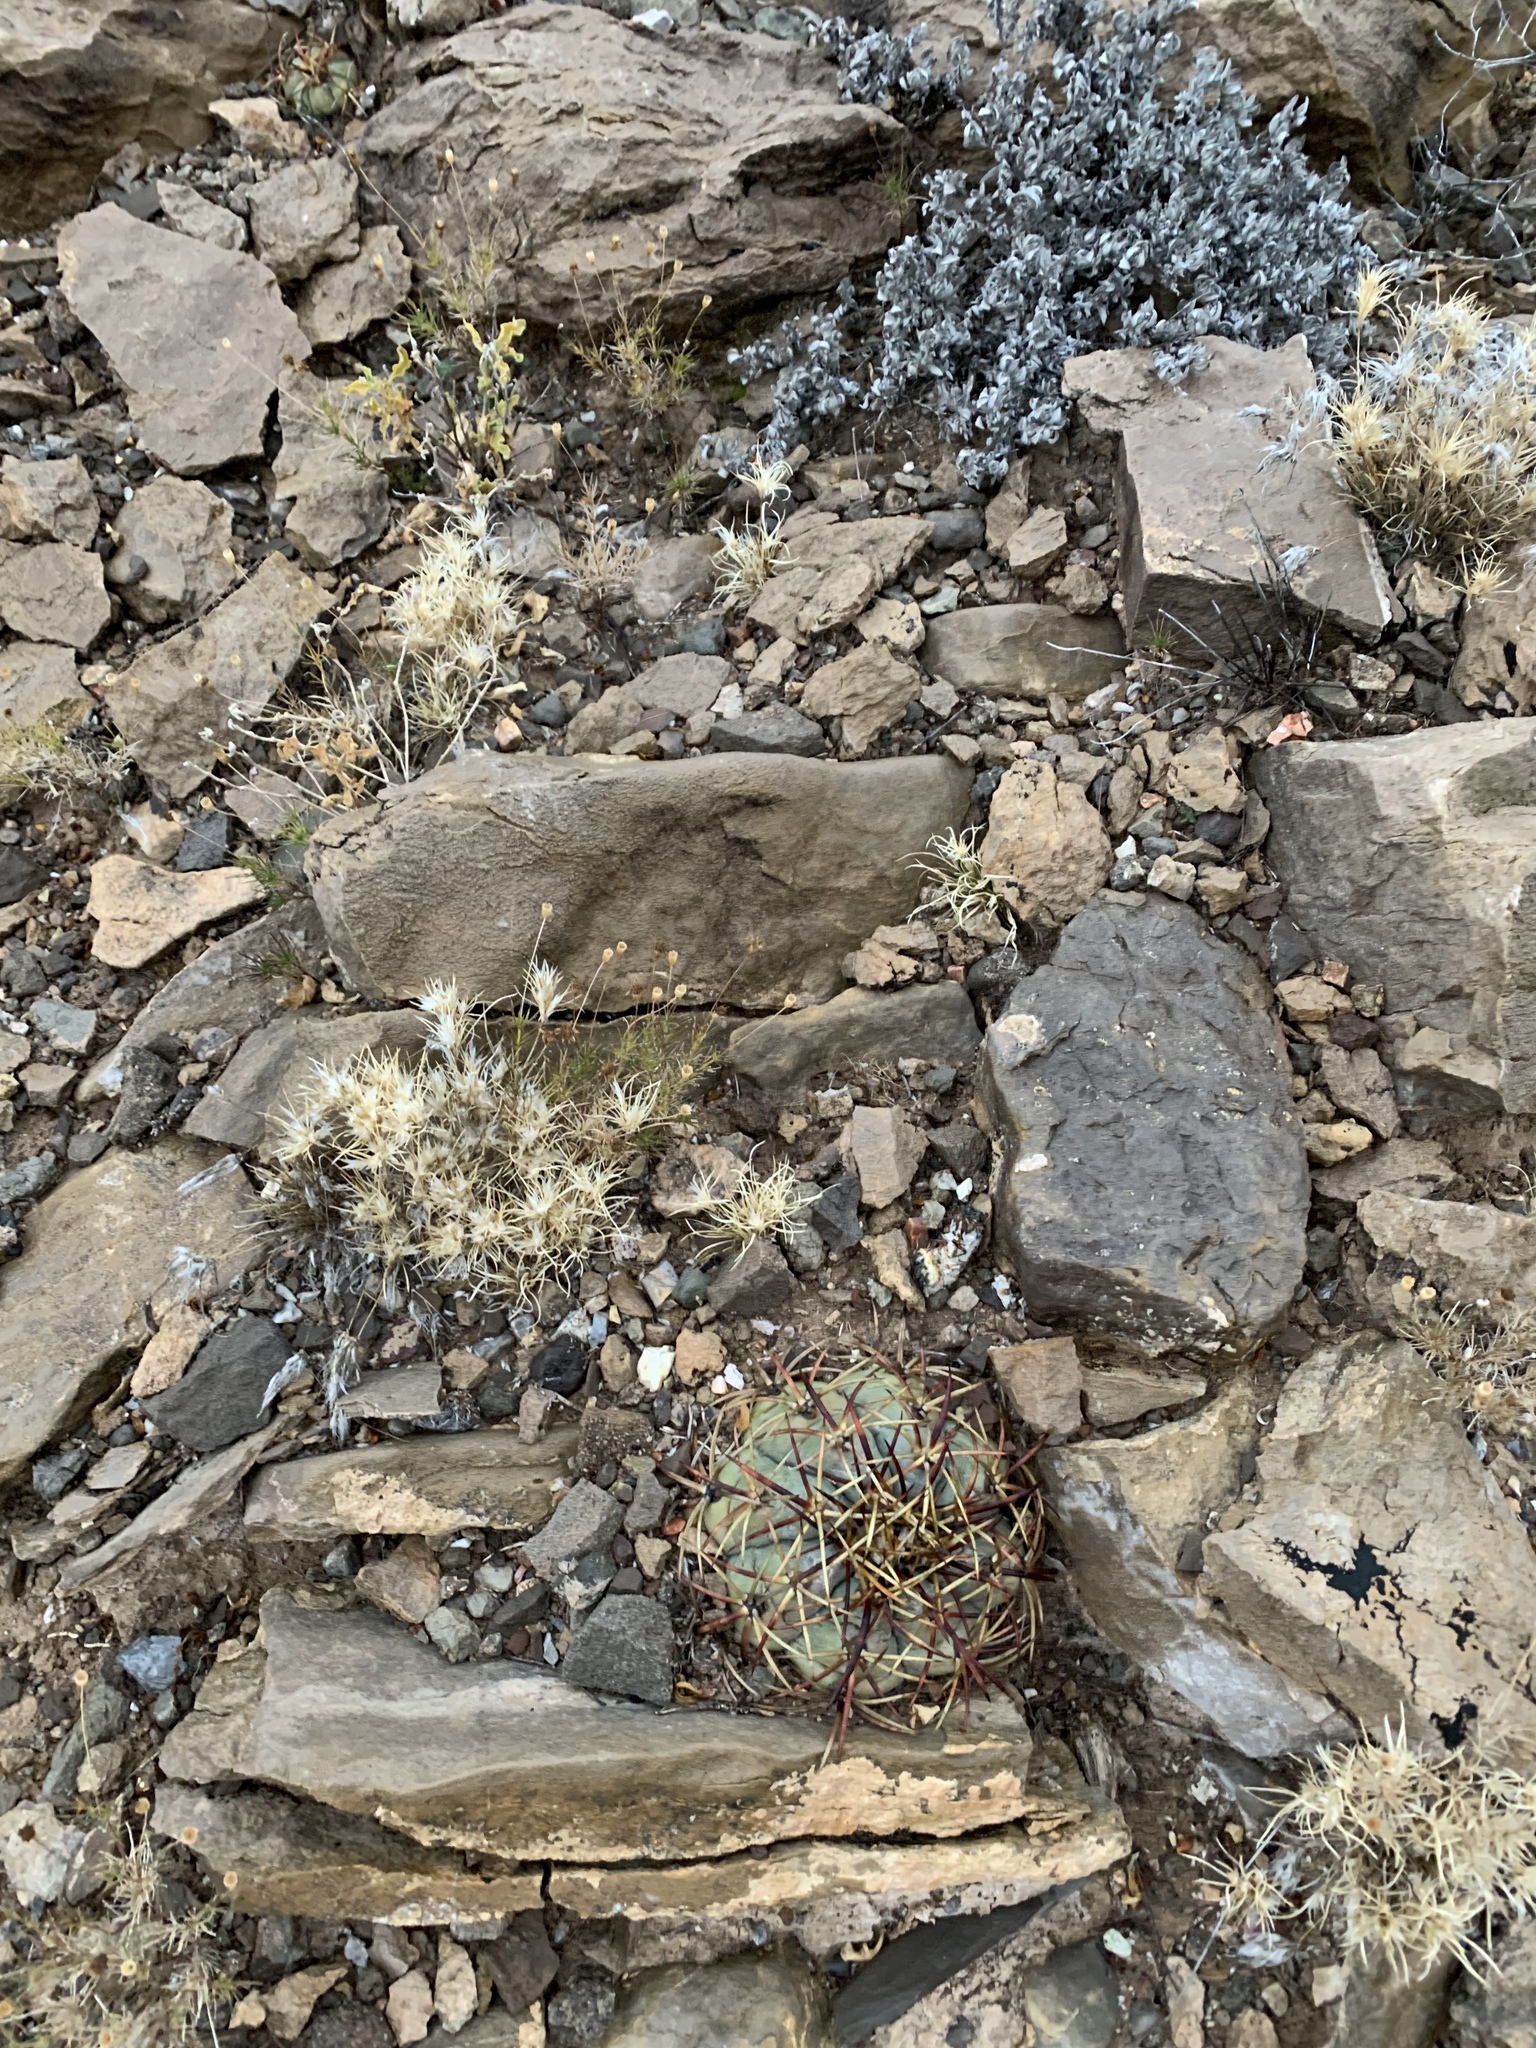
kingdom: Plantae
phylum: Tracheophyta
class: Magnoliopsida
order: Caryophyllales
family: Cactaceae
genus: Echinocactus
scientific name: Echinocactus horizonthalonius
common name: Devilshead
